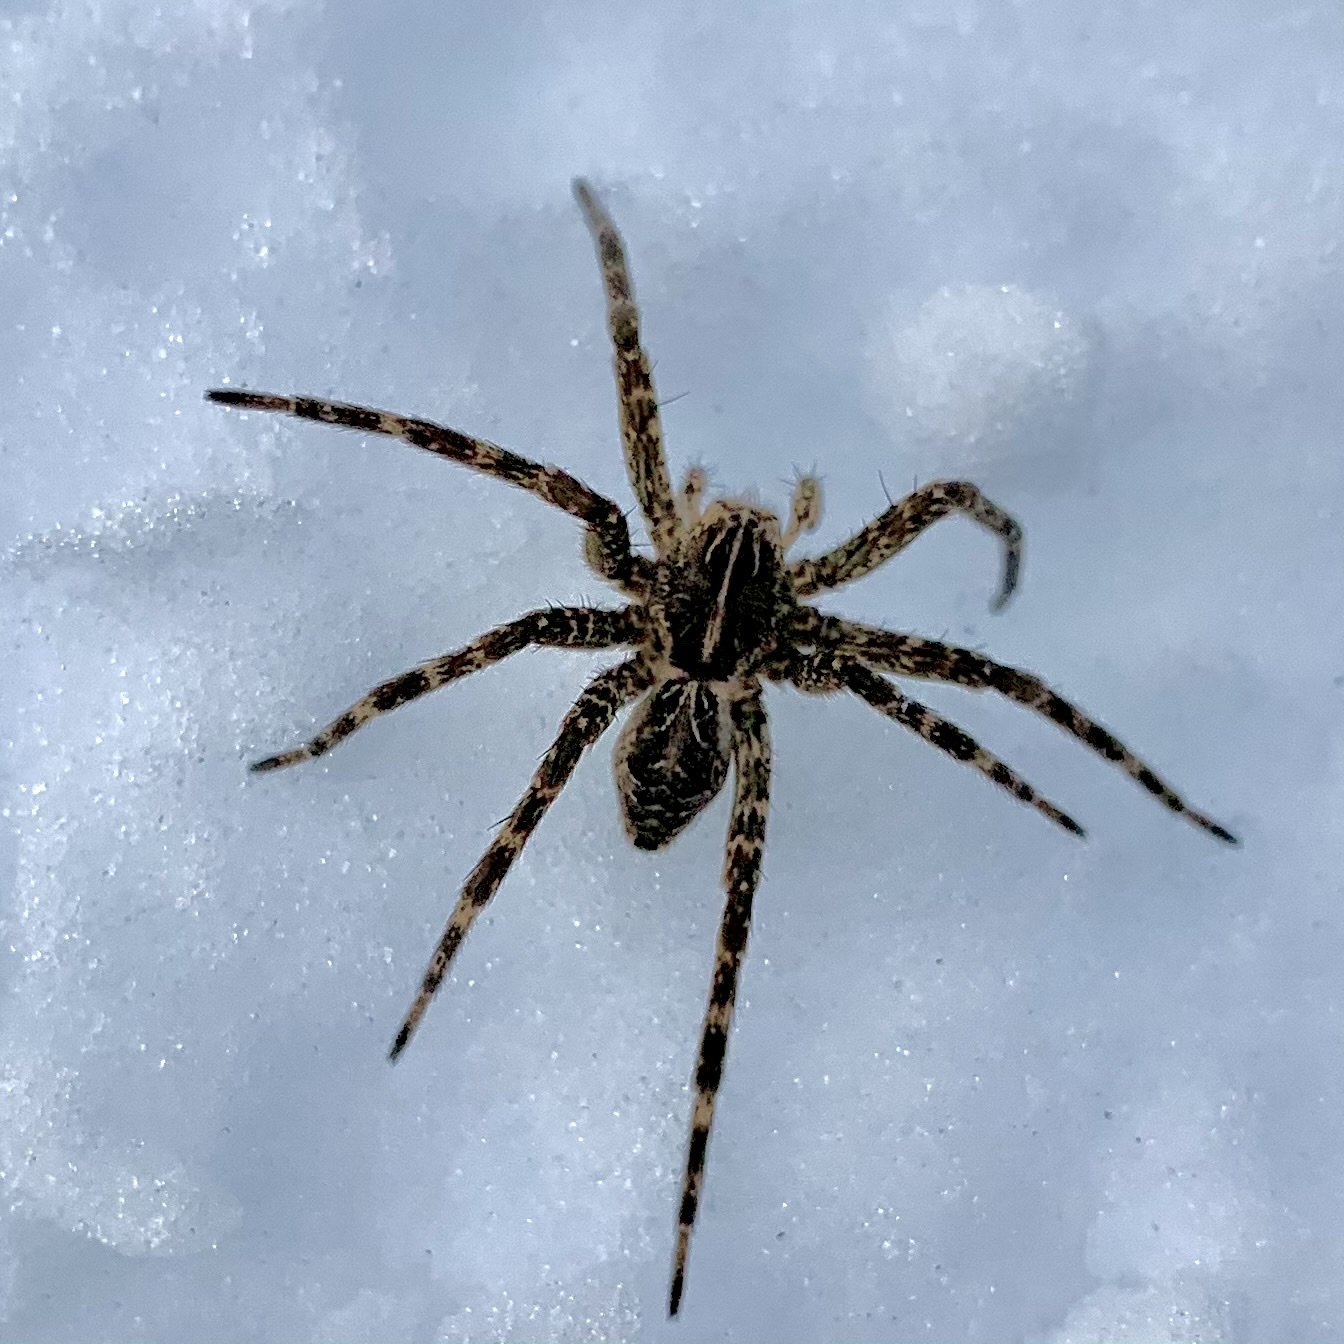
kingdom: Animalia
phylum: Arthropoda
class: Arachnida
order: Araneae
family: Pisauridae
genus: Dolomedes
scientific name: Dolomedes scriptus
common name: Striped fishing spider
